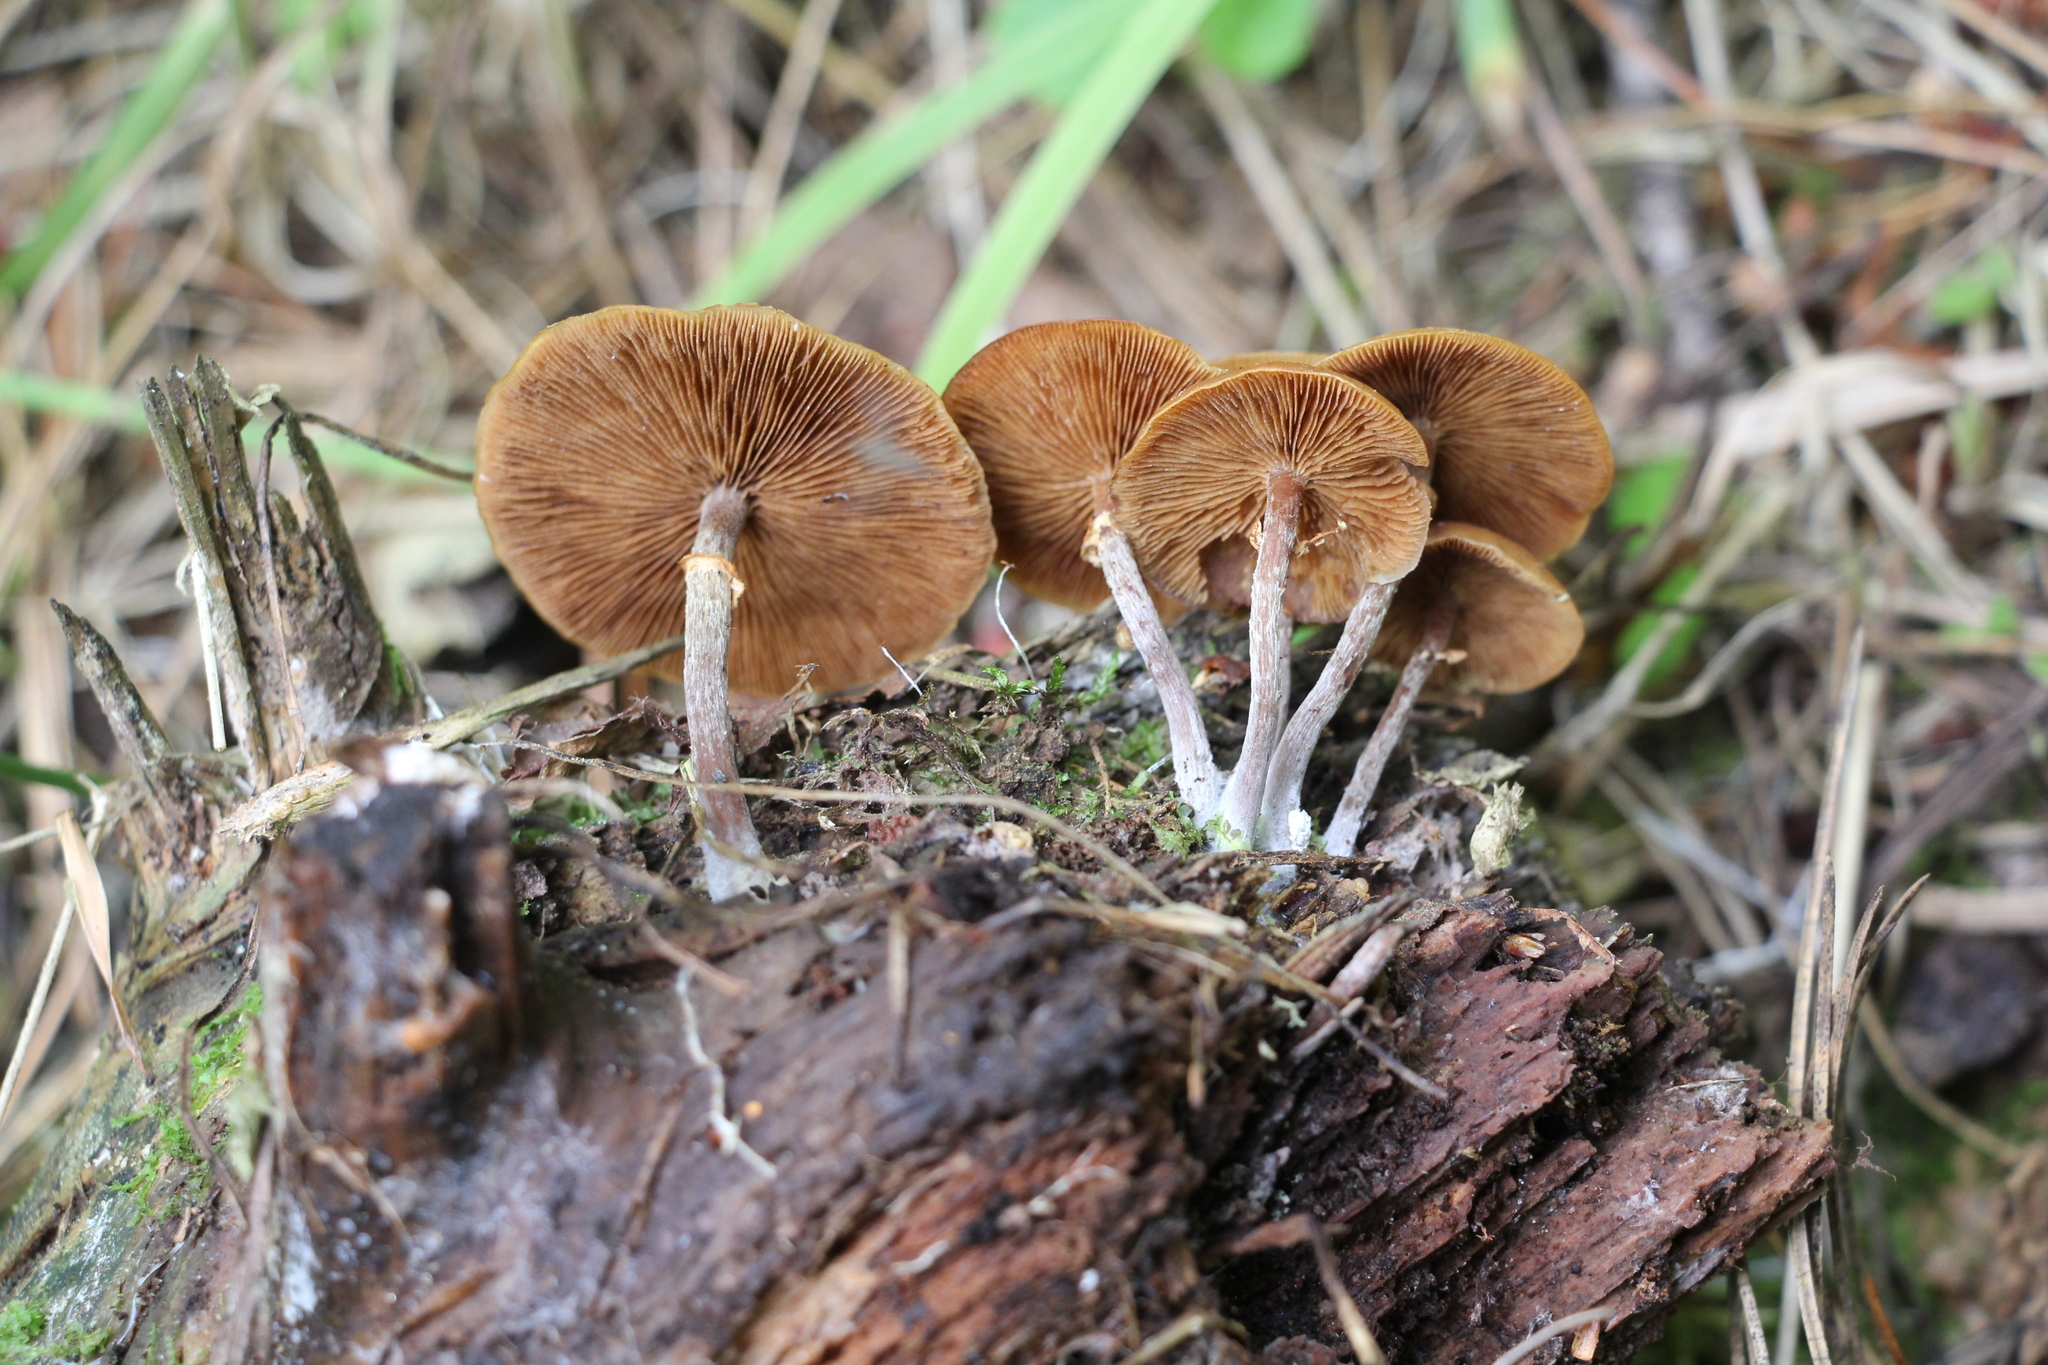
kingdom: Fungi
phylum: Basidiomycota
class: Agaricomycetes
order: Agaricales
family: Strophariaceae
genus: Pholiota
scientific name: Pholiota lignicola
